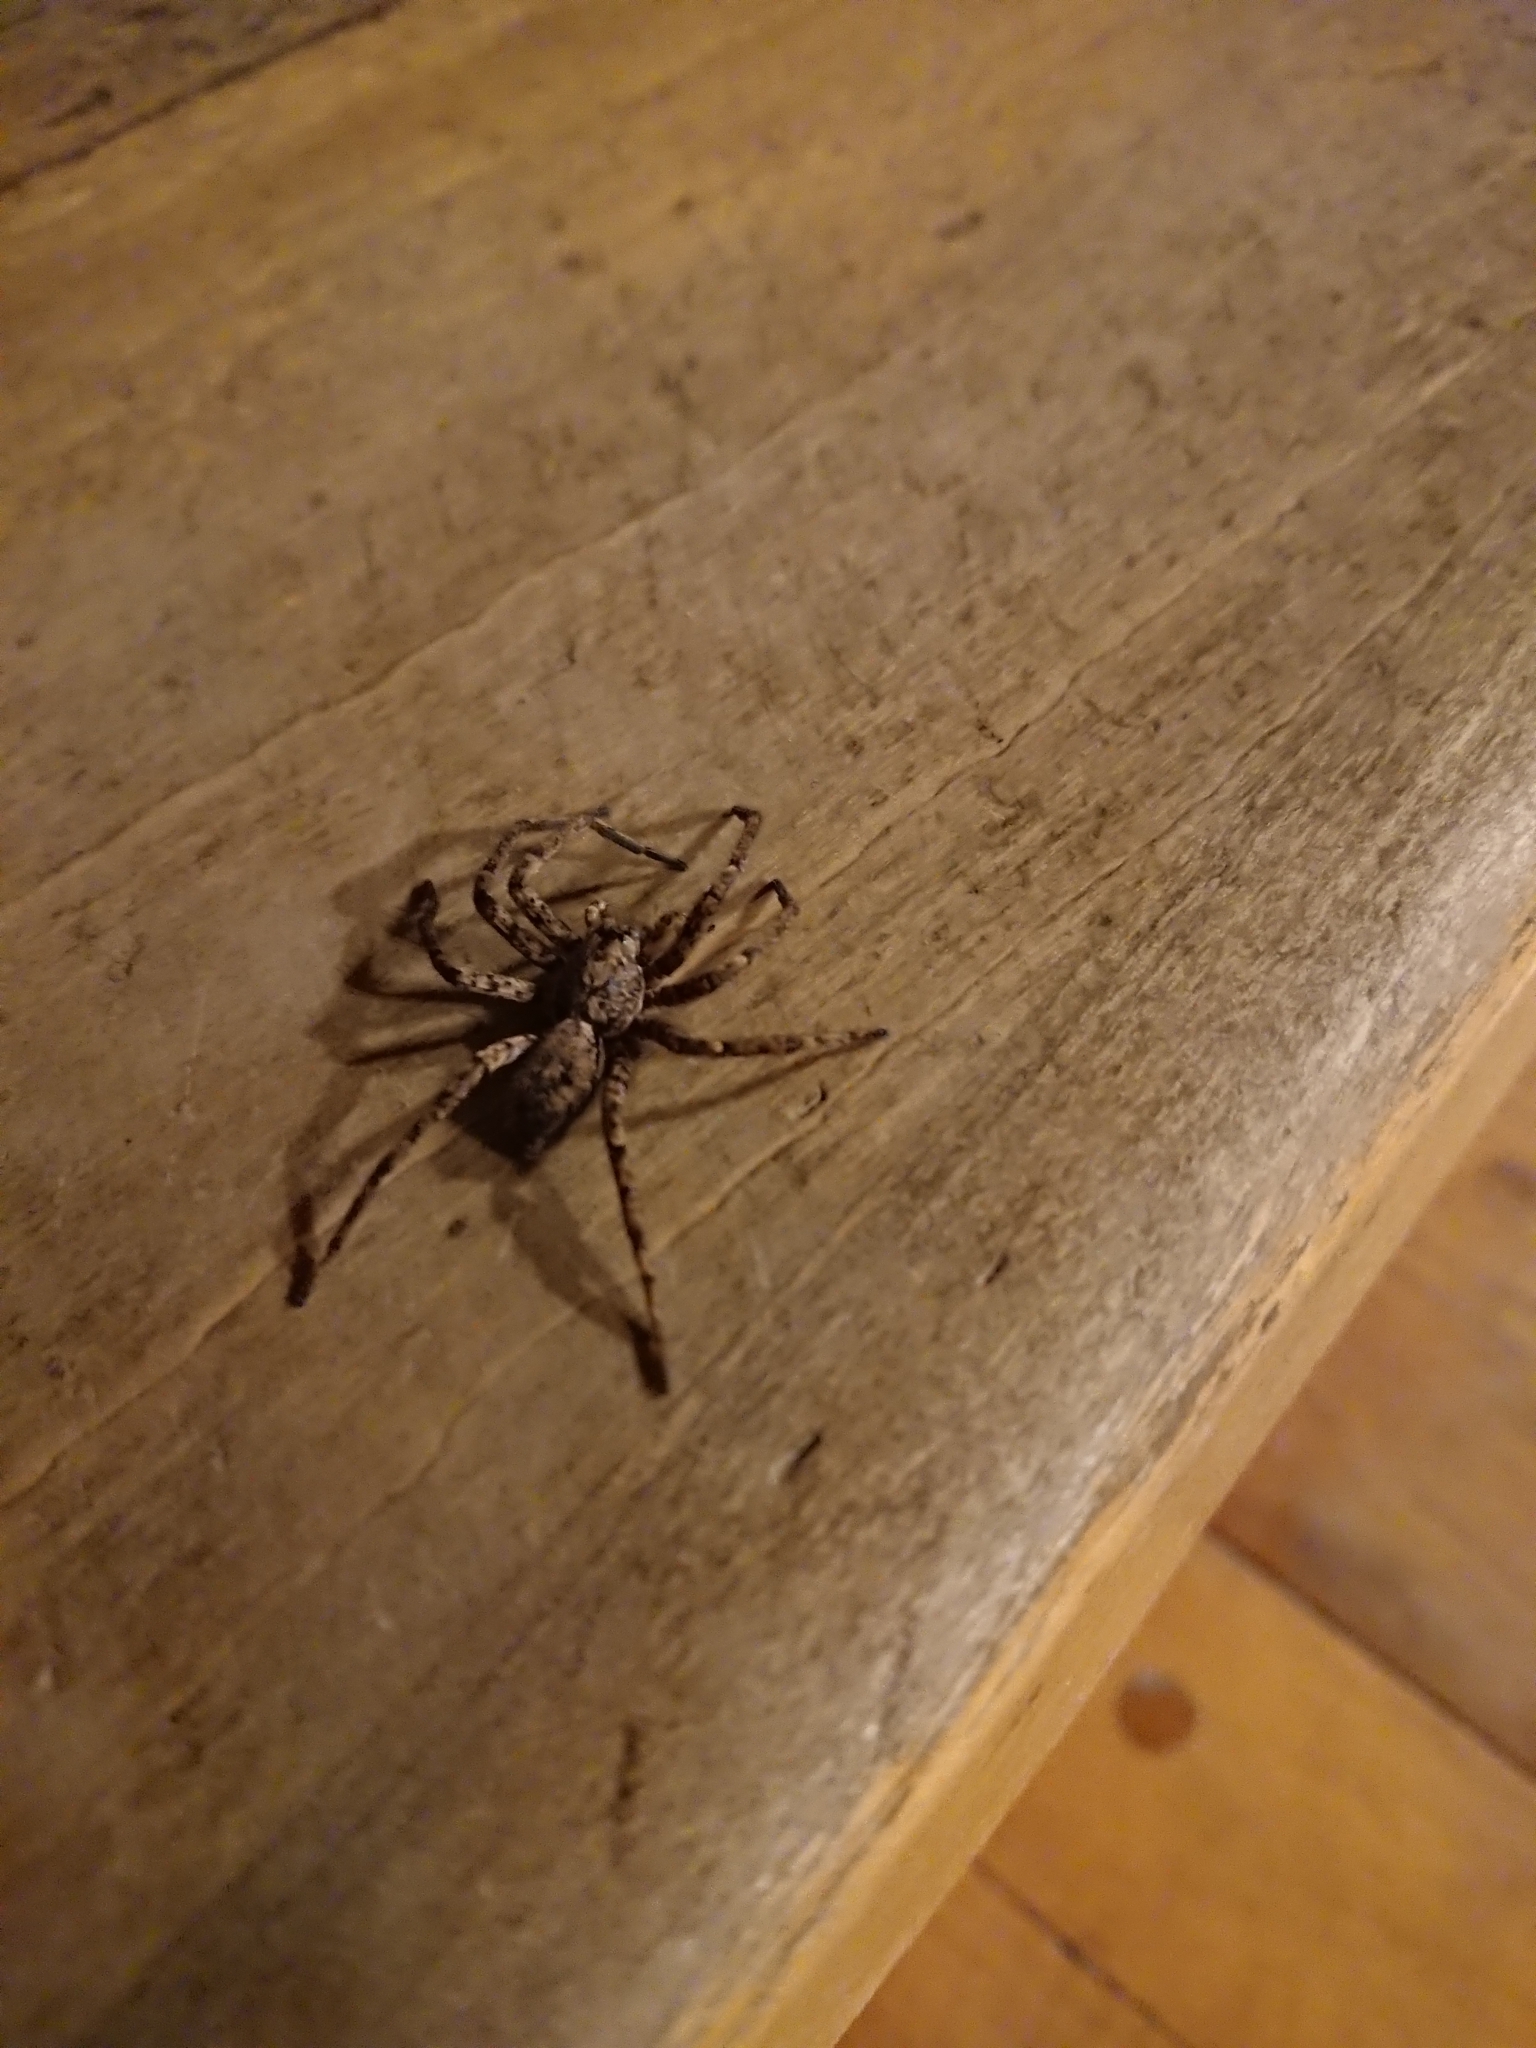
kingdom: Animalia
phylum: Arthropoda
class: Arachnida
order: Araneae
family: Anyphaenidae
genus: Tomopisthes
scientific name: Tomopisthes horrendus
